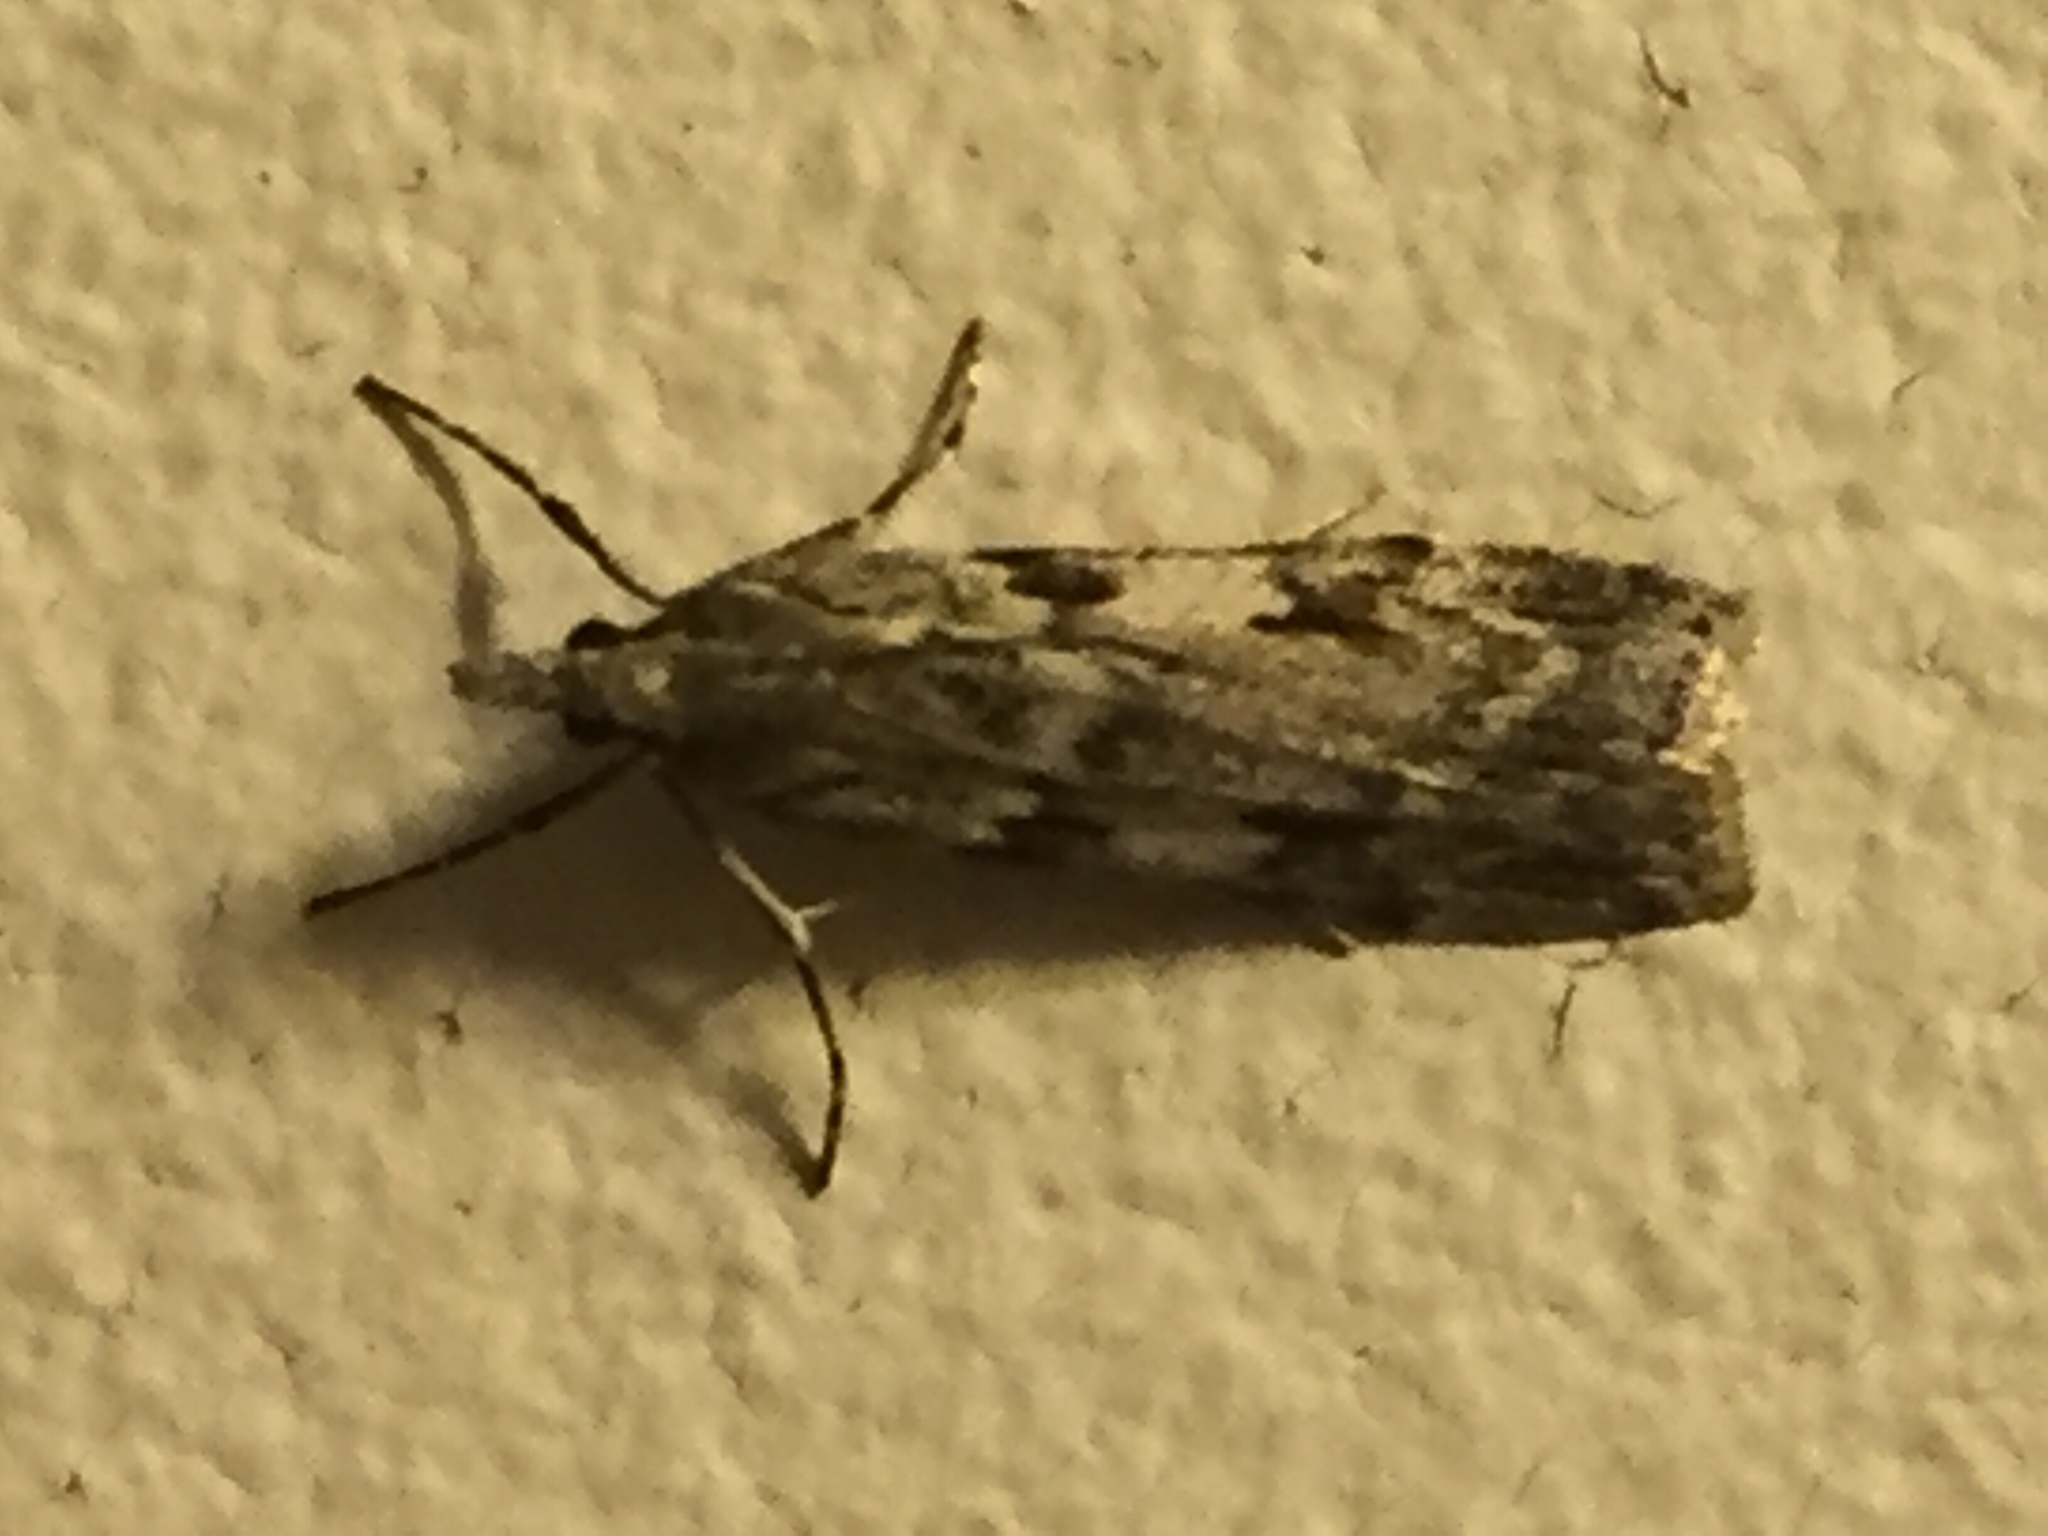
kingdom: Animalia
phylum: Arthropoda
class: Insecta
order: Lepidoptera
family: Crambidae
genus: Scoparia
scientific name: Scoparia halopis
